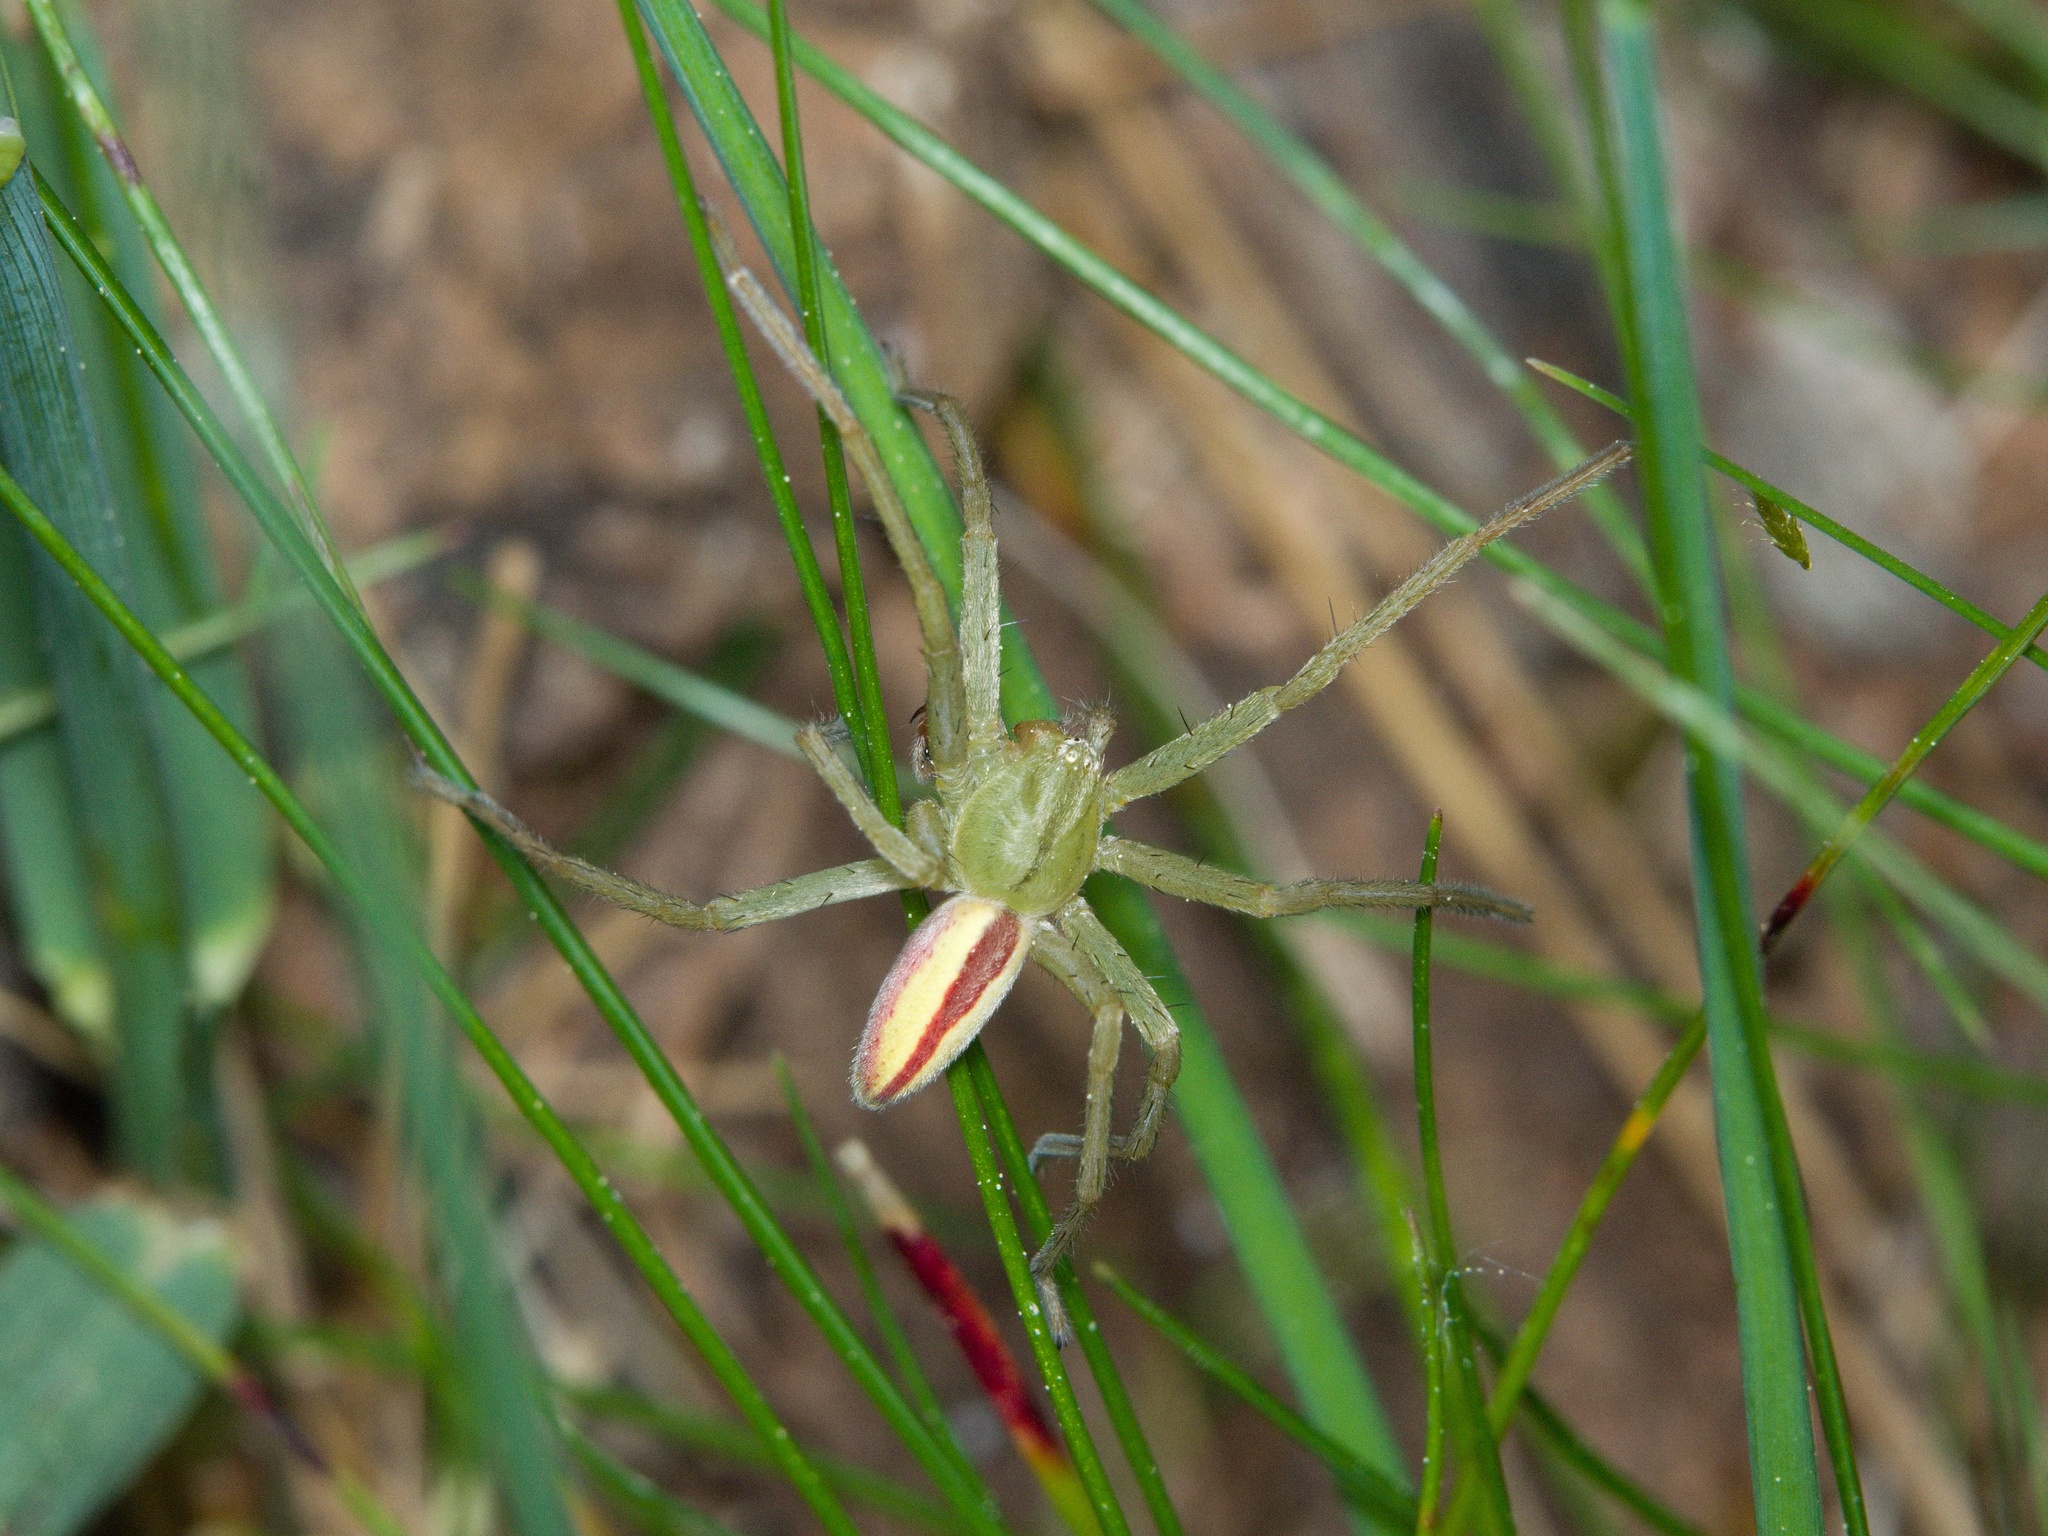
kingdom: Animalia
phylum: Arthropoda
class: Arachnida
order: Araneae
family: Sparassidae
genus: Micrommata
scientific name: Micrommata virescens
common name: Green spider
